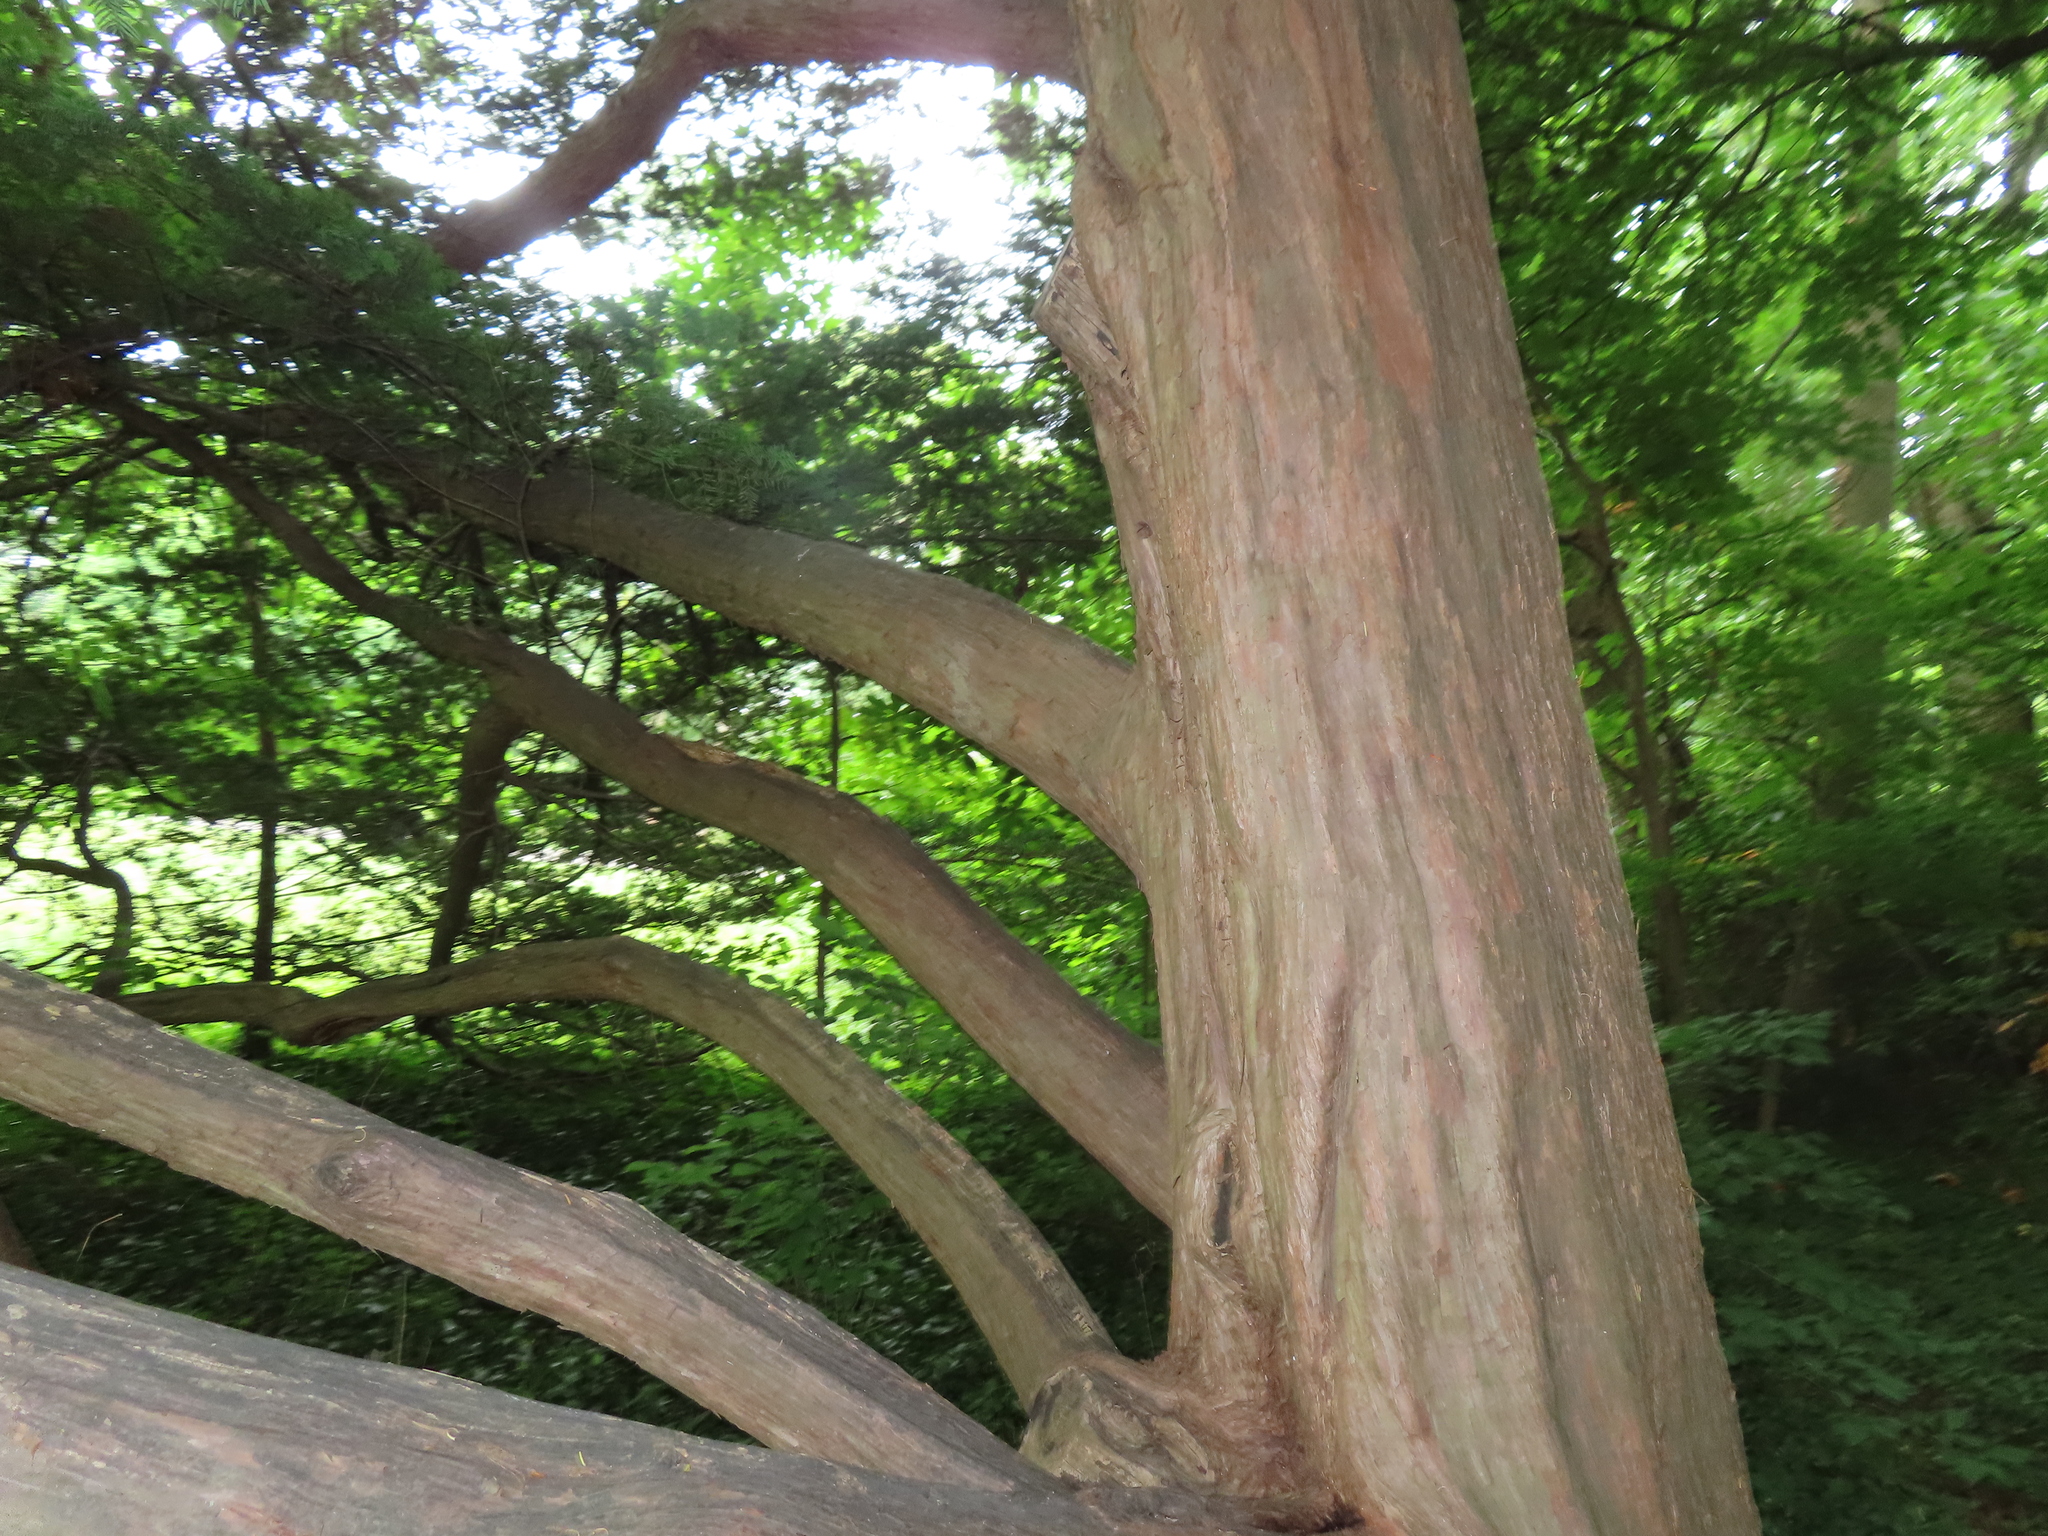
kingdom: Plantae
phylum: Tracheophyta
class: Pinopsida
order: Pinales
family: Taxaceae
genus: Taxus
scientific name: Taxus cuspidata
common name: Japanese yew
